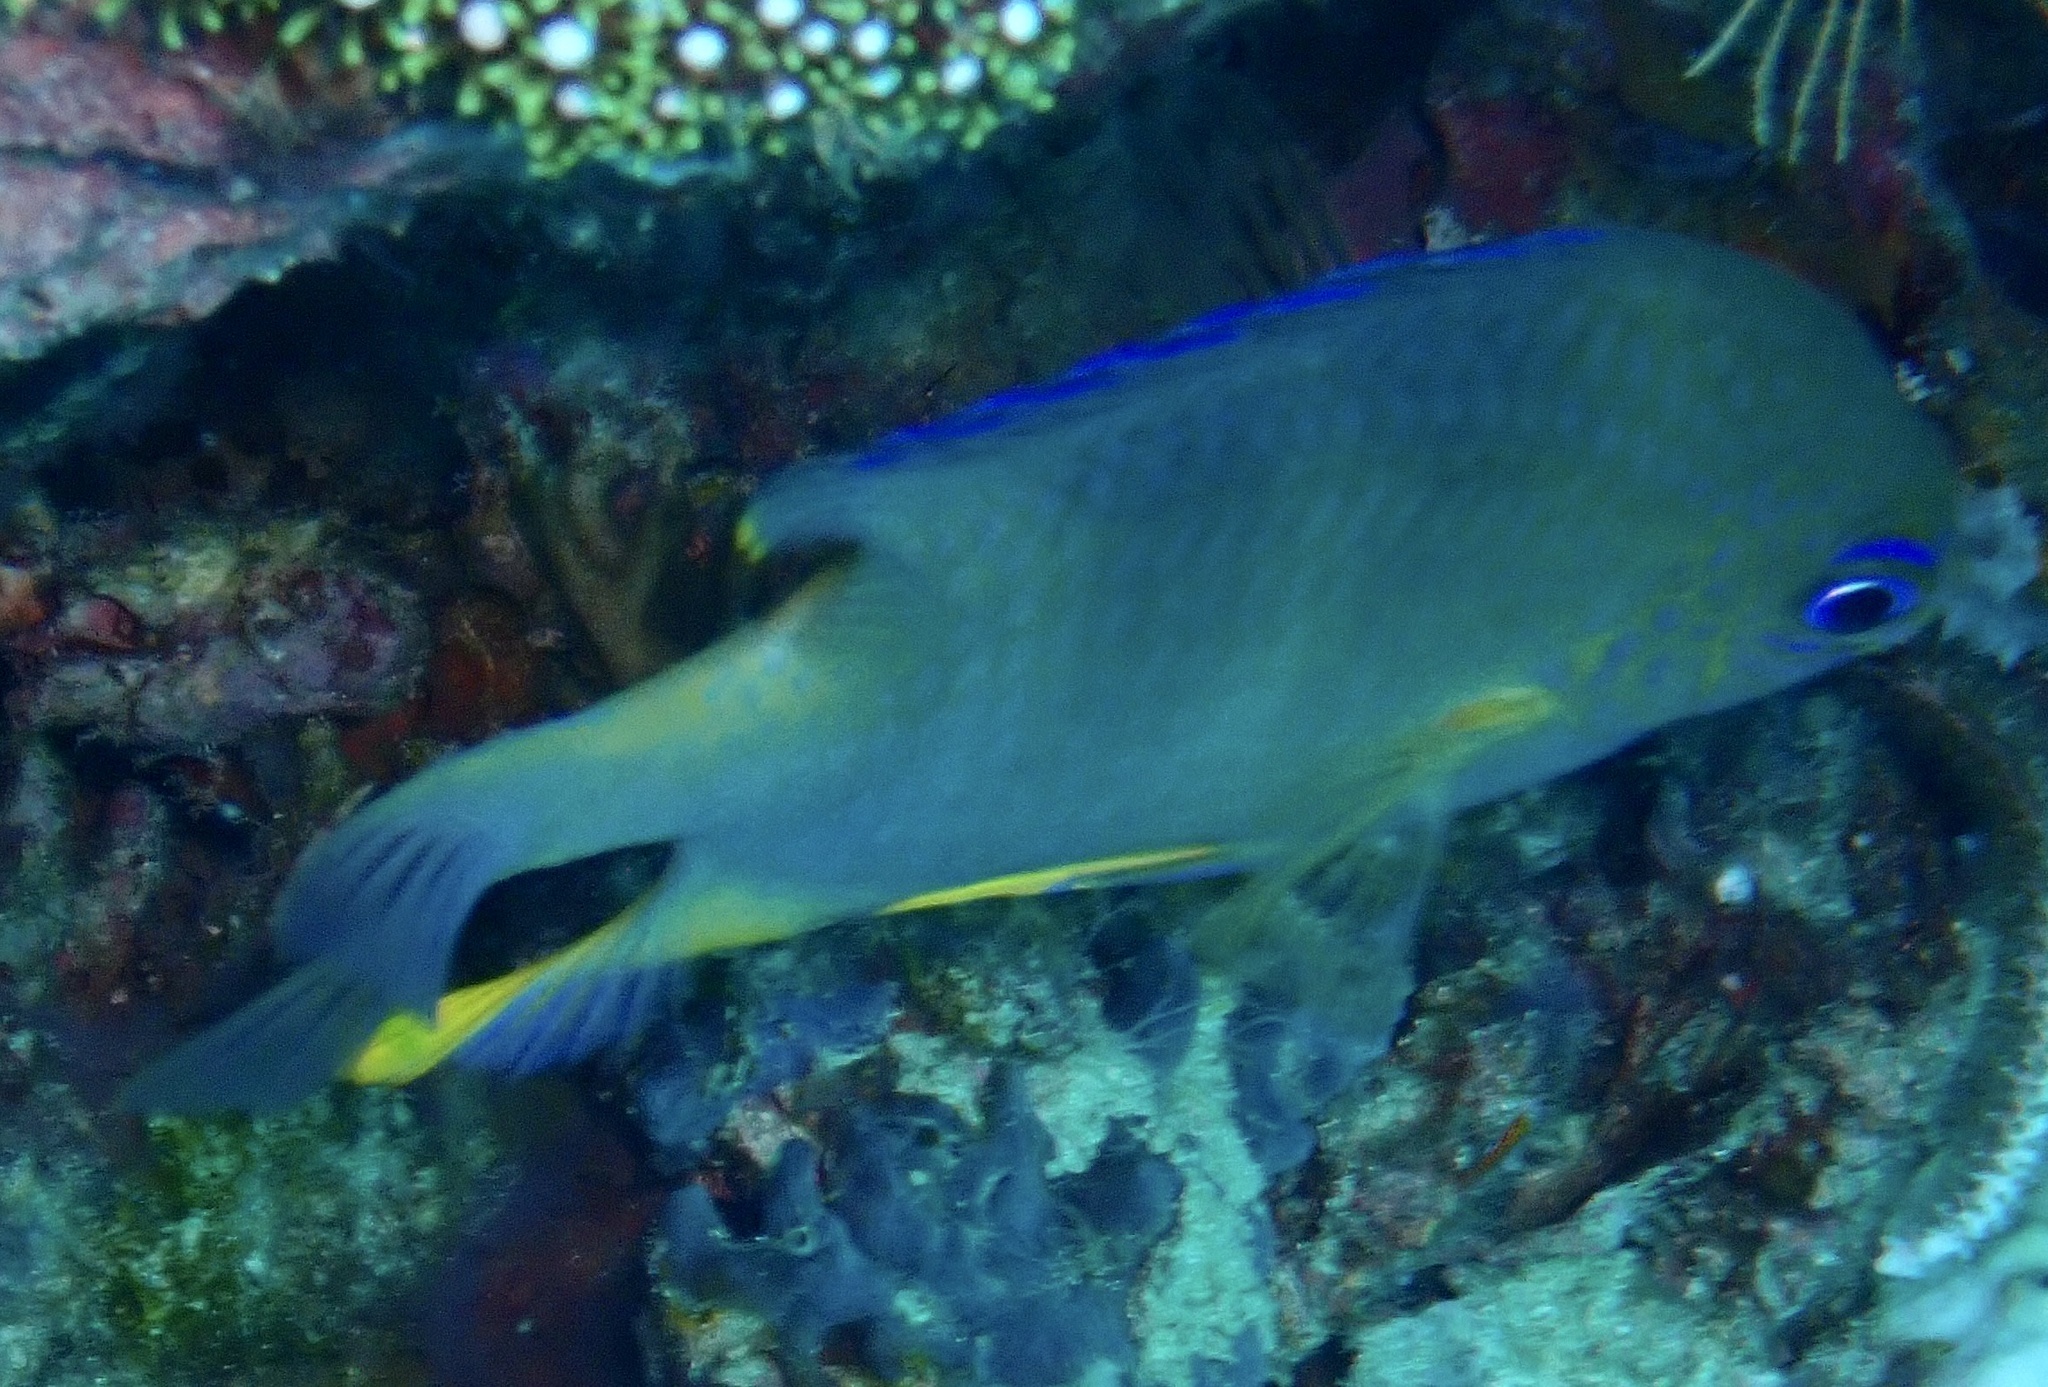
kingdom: Animalia
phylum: Chordata
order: Perciformes
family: Pomacentridae
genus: Amblyglyphidodon
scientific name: Amblyglyphidodon aureus
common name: Golden damsel
